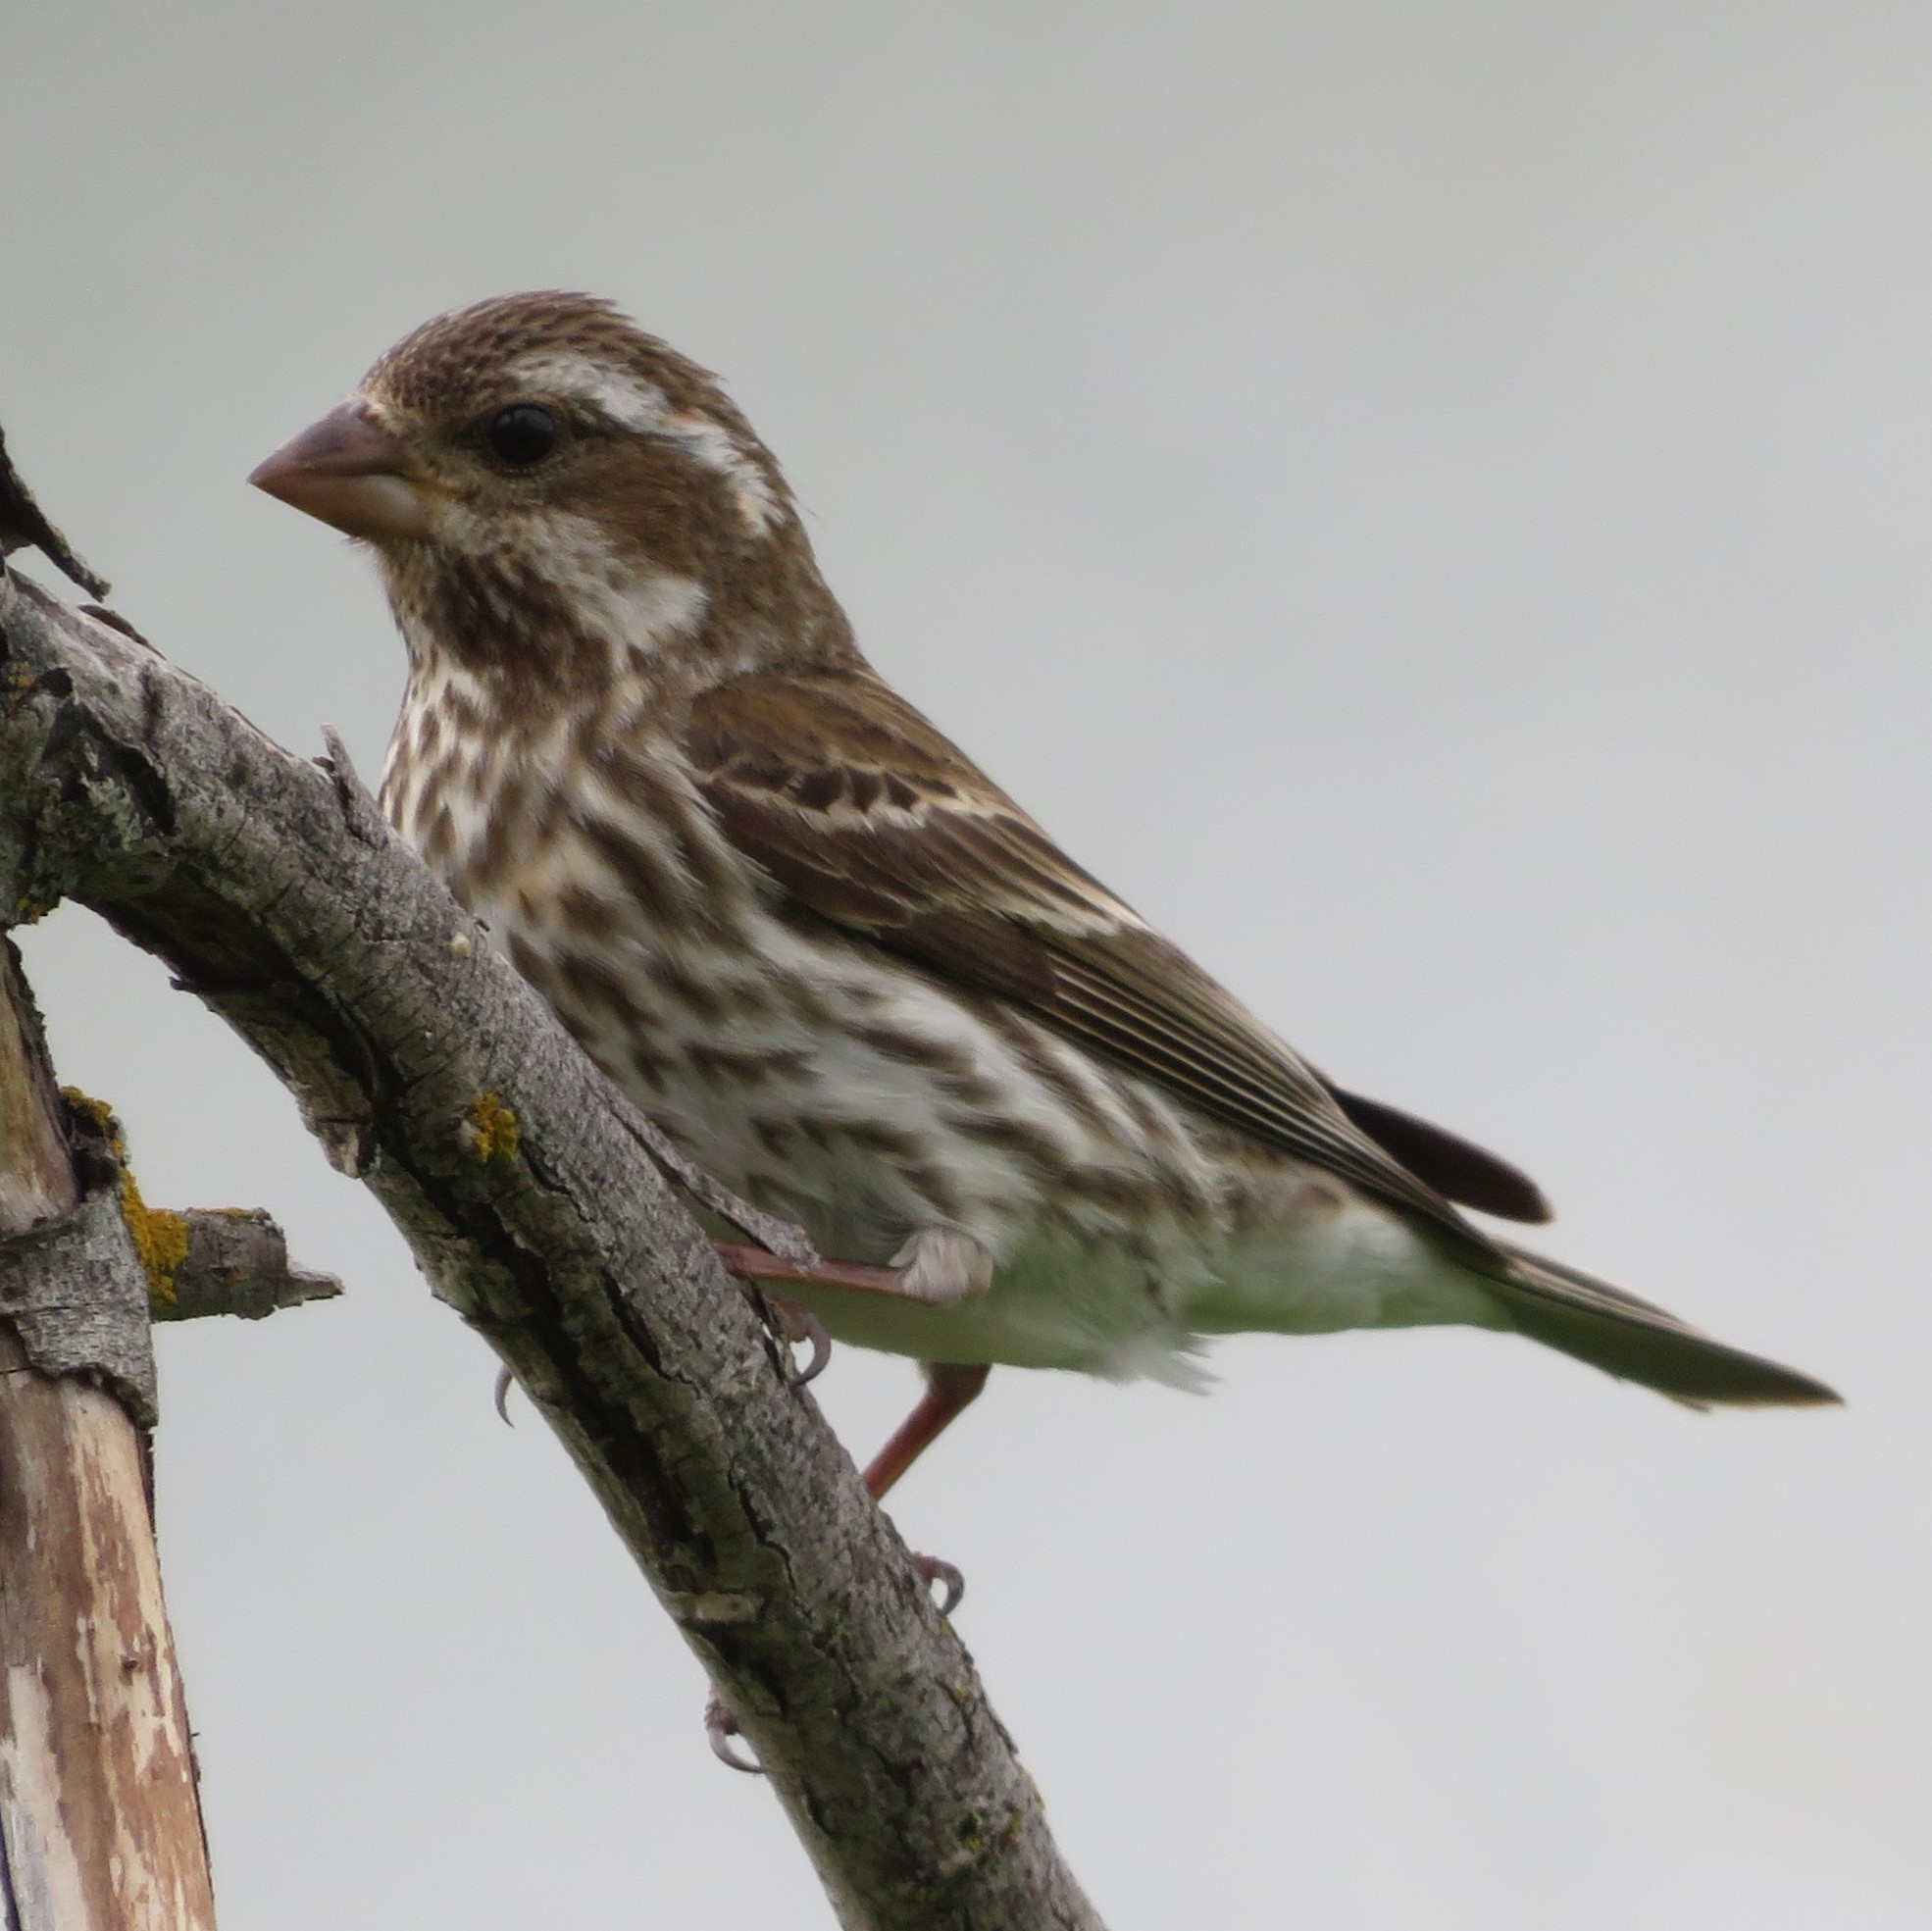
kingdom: Animalia
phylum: Chordata
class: Aves
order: Passeriformes
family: Fringillidae
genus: Haemorhous
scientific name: Haemorhous purpureus
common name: Purple finch
